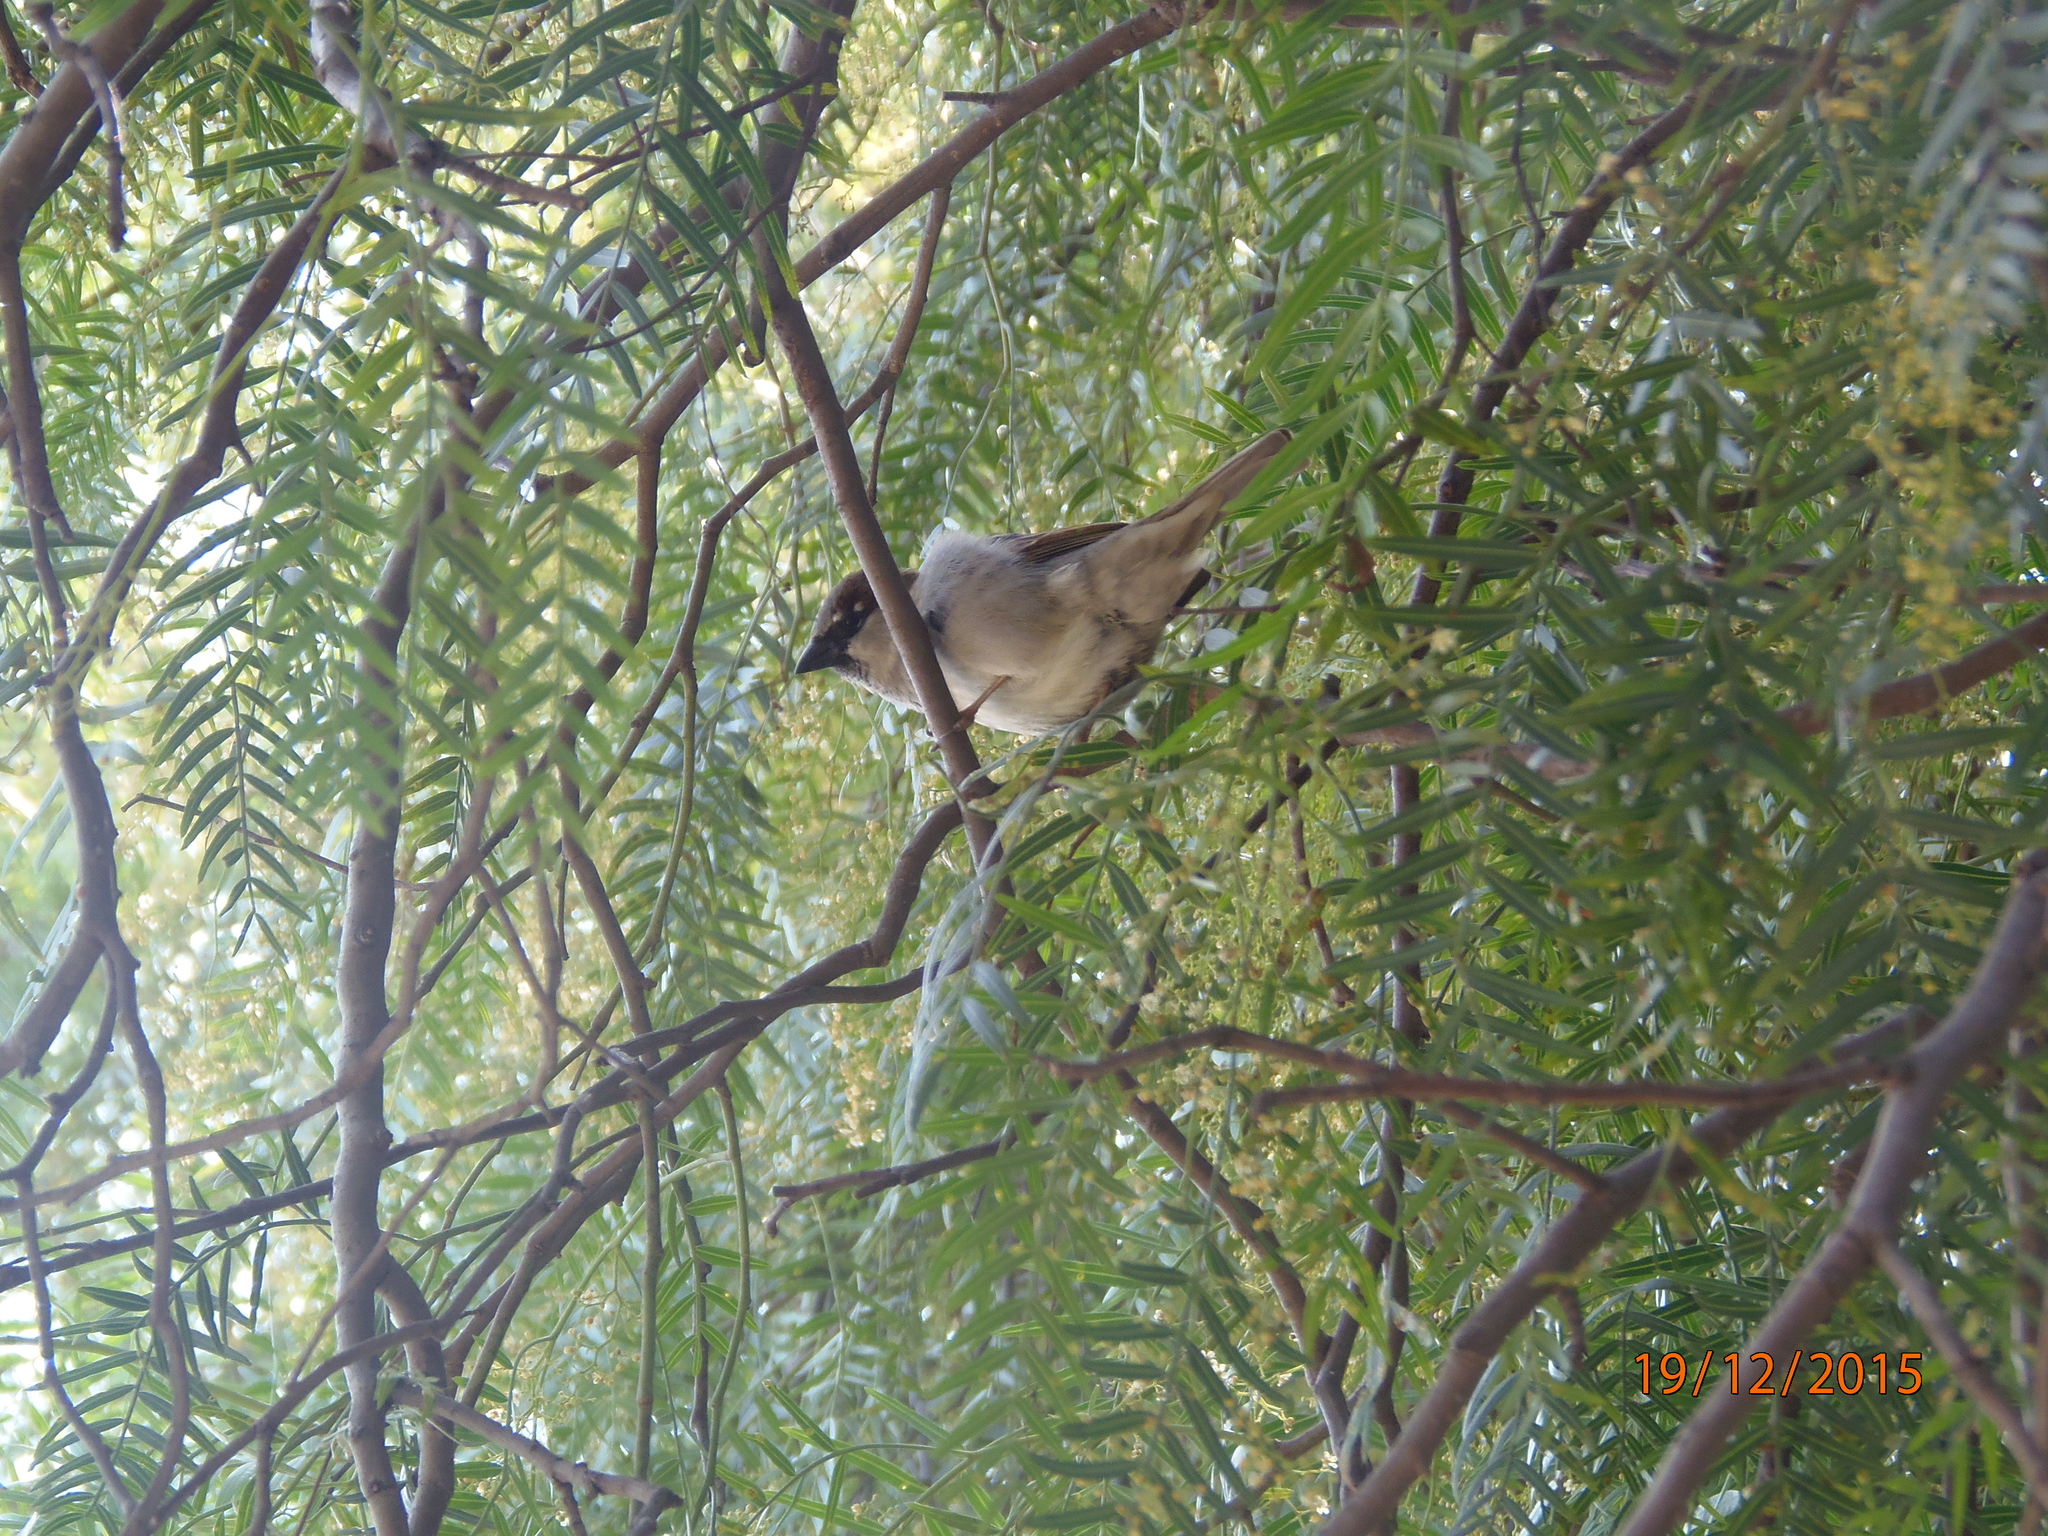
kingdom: Animalia
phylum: Chordata
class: Aves
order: Passeriformes
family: Passeridae
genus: Passer
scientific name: Passer domesticus
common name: House sparrow
